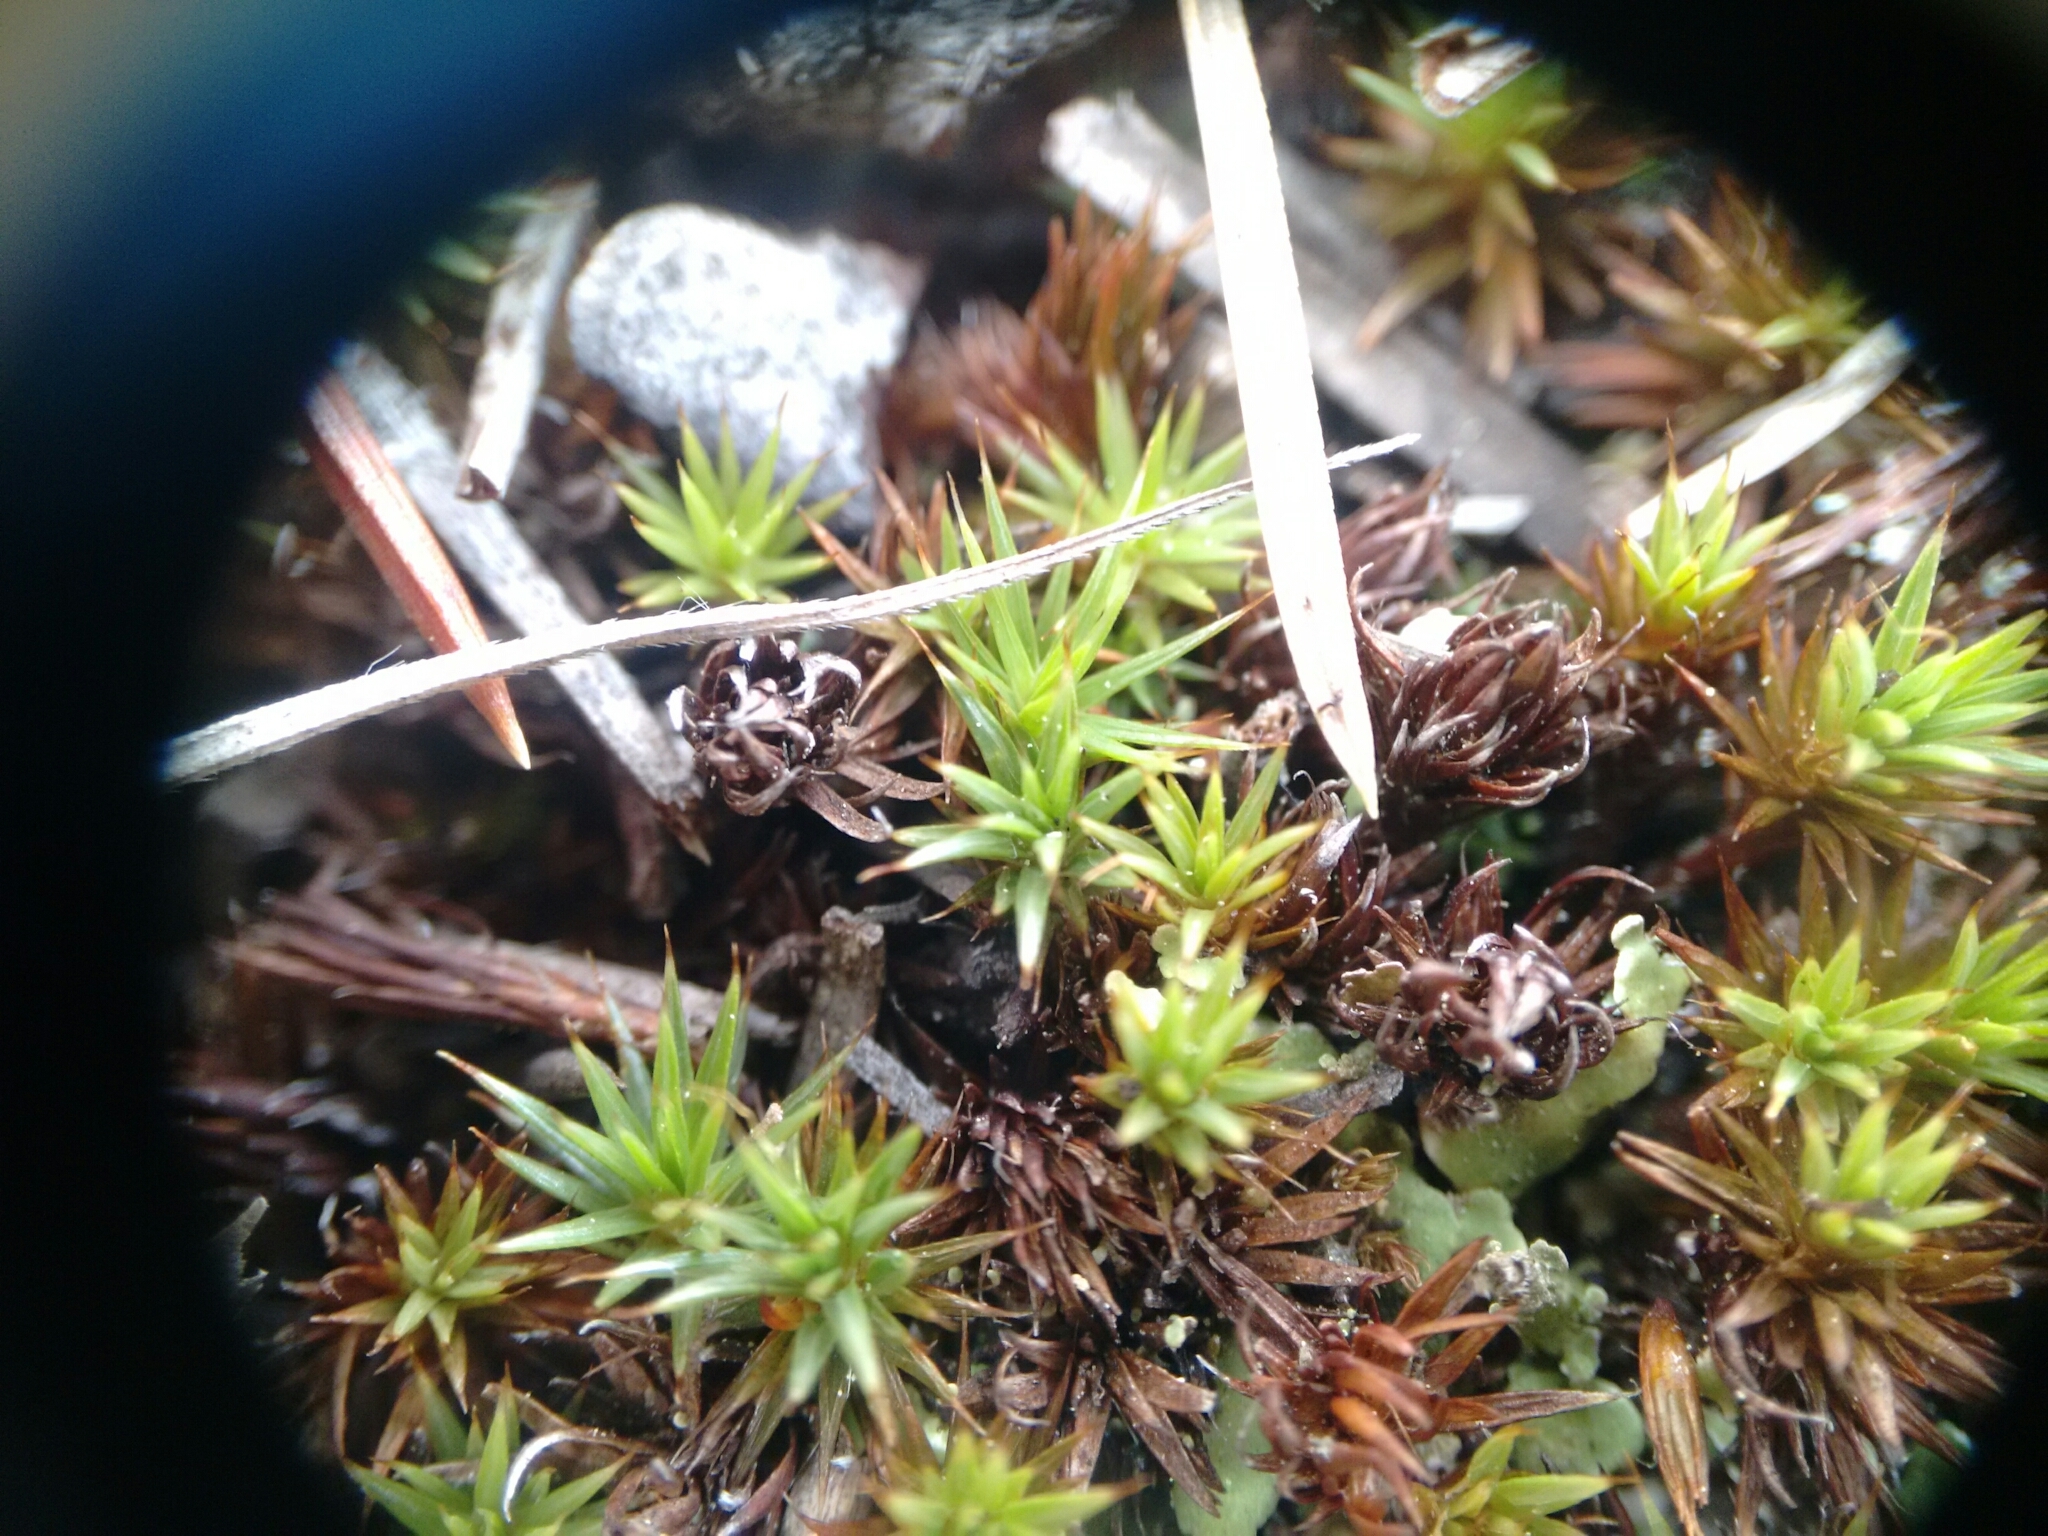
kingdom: Plantae
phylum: Bryophyta
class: Polytrichopsida
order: Polytrichales
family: Polytrichaceae
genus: Polytrichum
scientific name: Polytrichum juniperinum
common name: Juniper haircap moss
